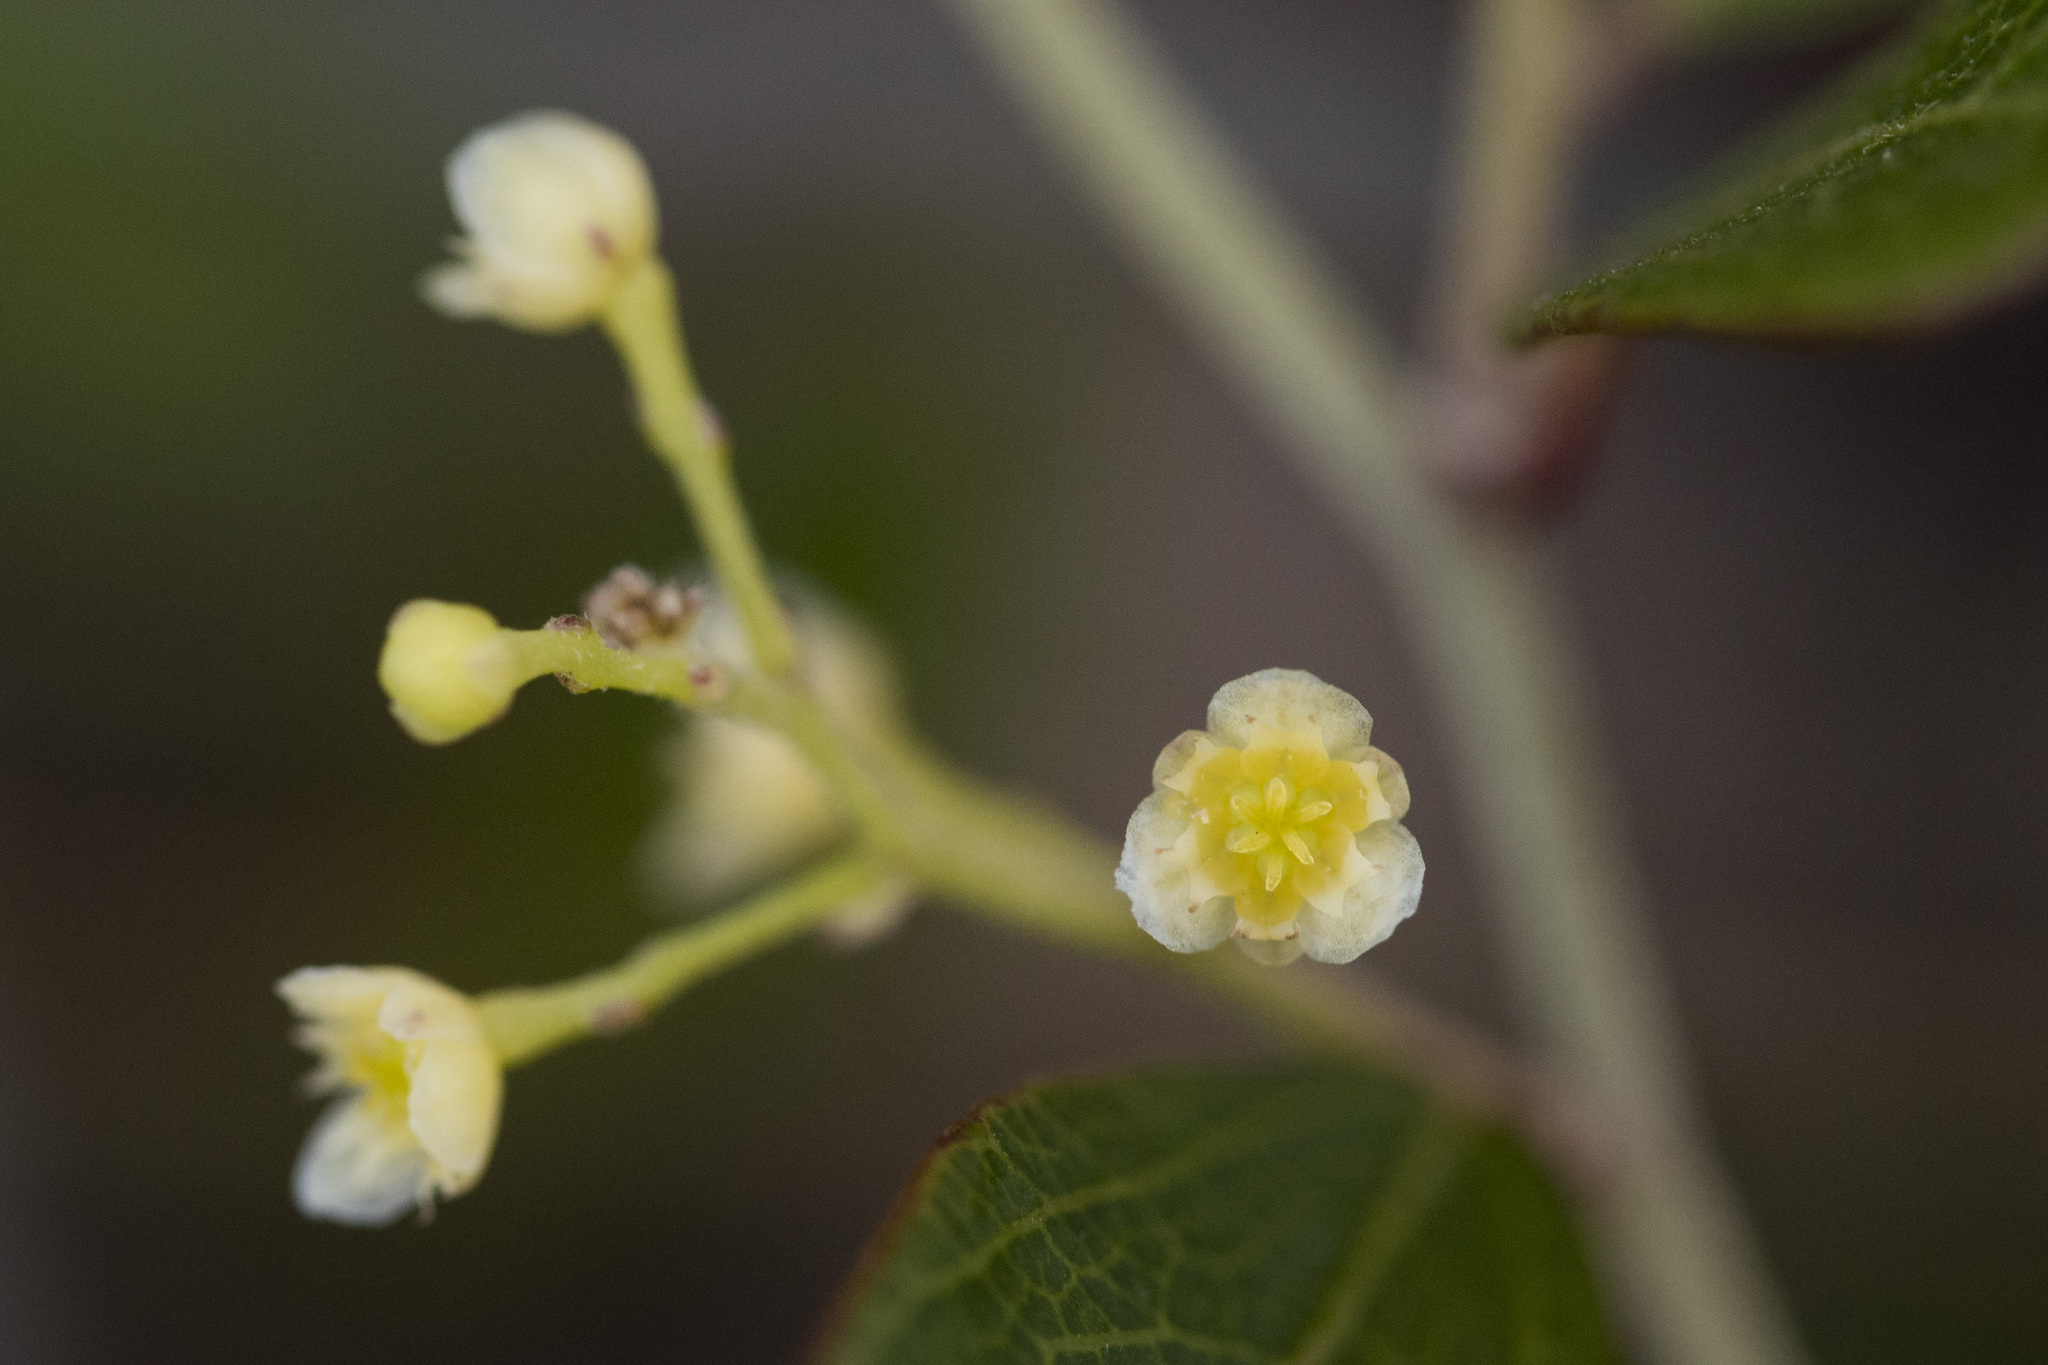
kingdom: Plantae
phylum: Tracheophyta
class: Magnoliopsida
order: Ranunculales
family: Menispermaceae
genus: Cocculus
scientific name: Cocculus orbiculatus
